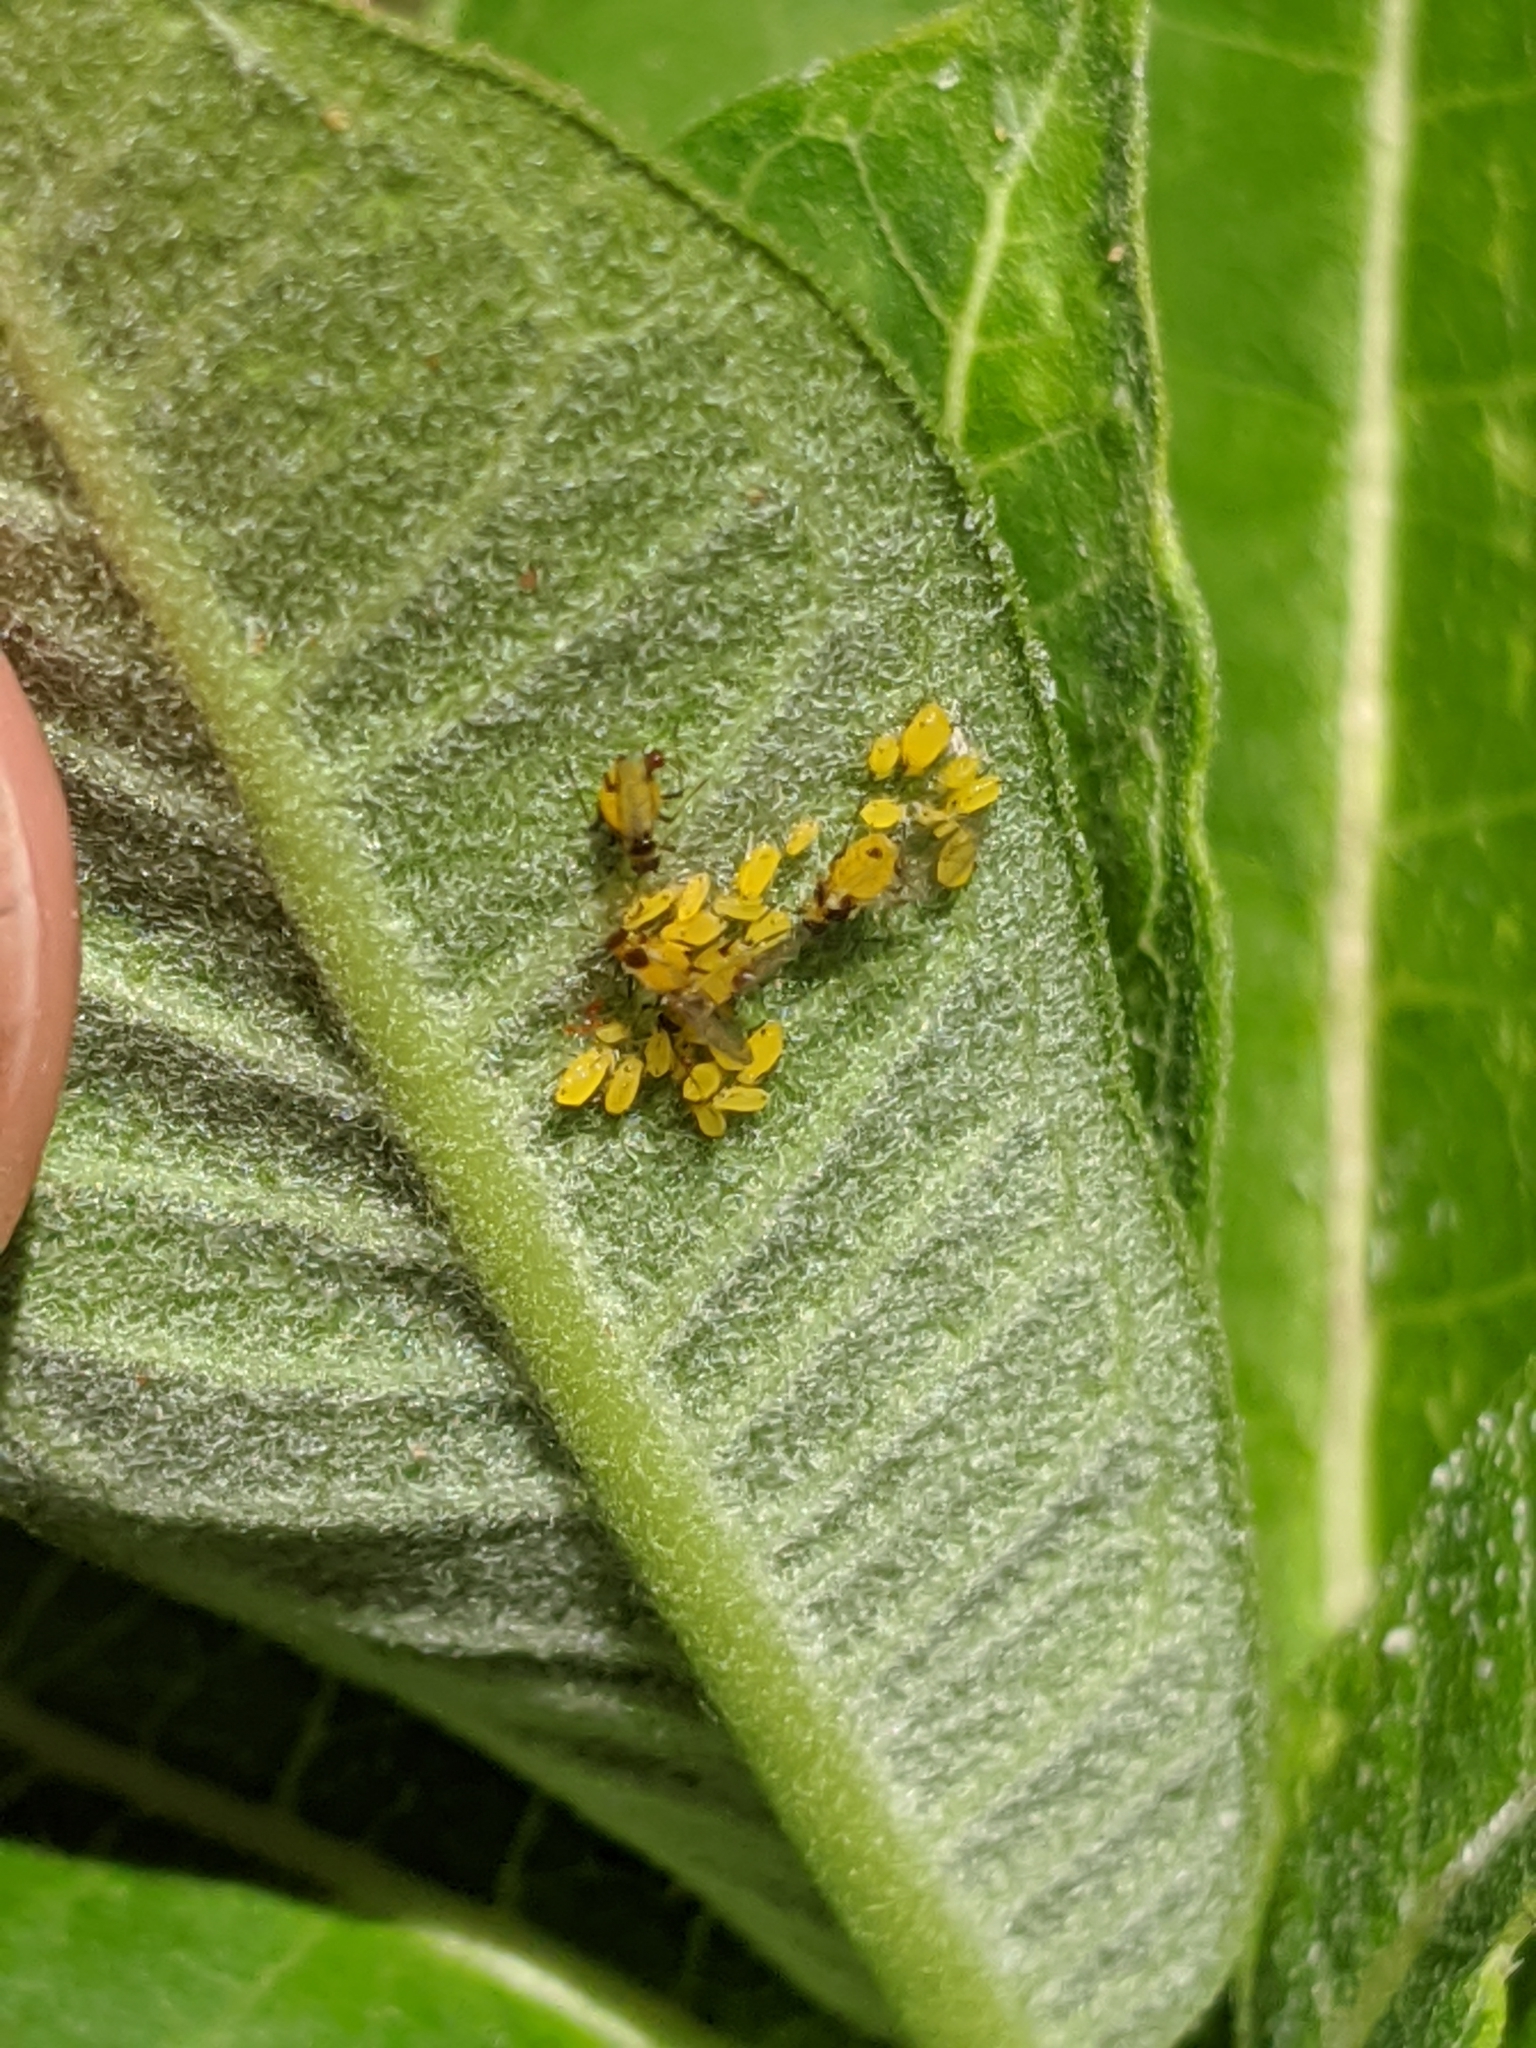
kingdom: Animalia
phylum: Arthropoda
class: Insecta
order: Hemiptera
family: Aphididae
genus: Aphis
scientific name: Aphis nerii
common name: Oleander aphid
